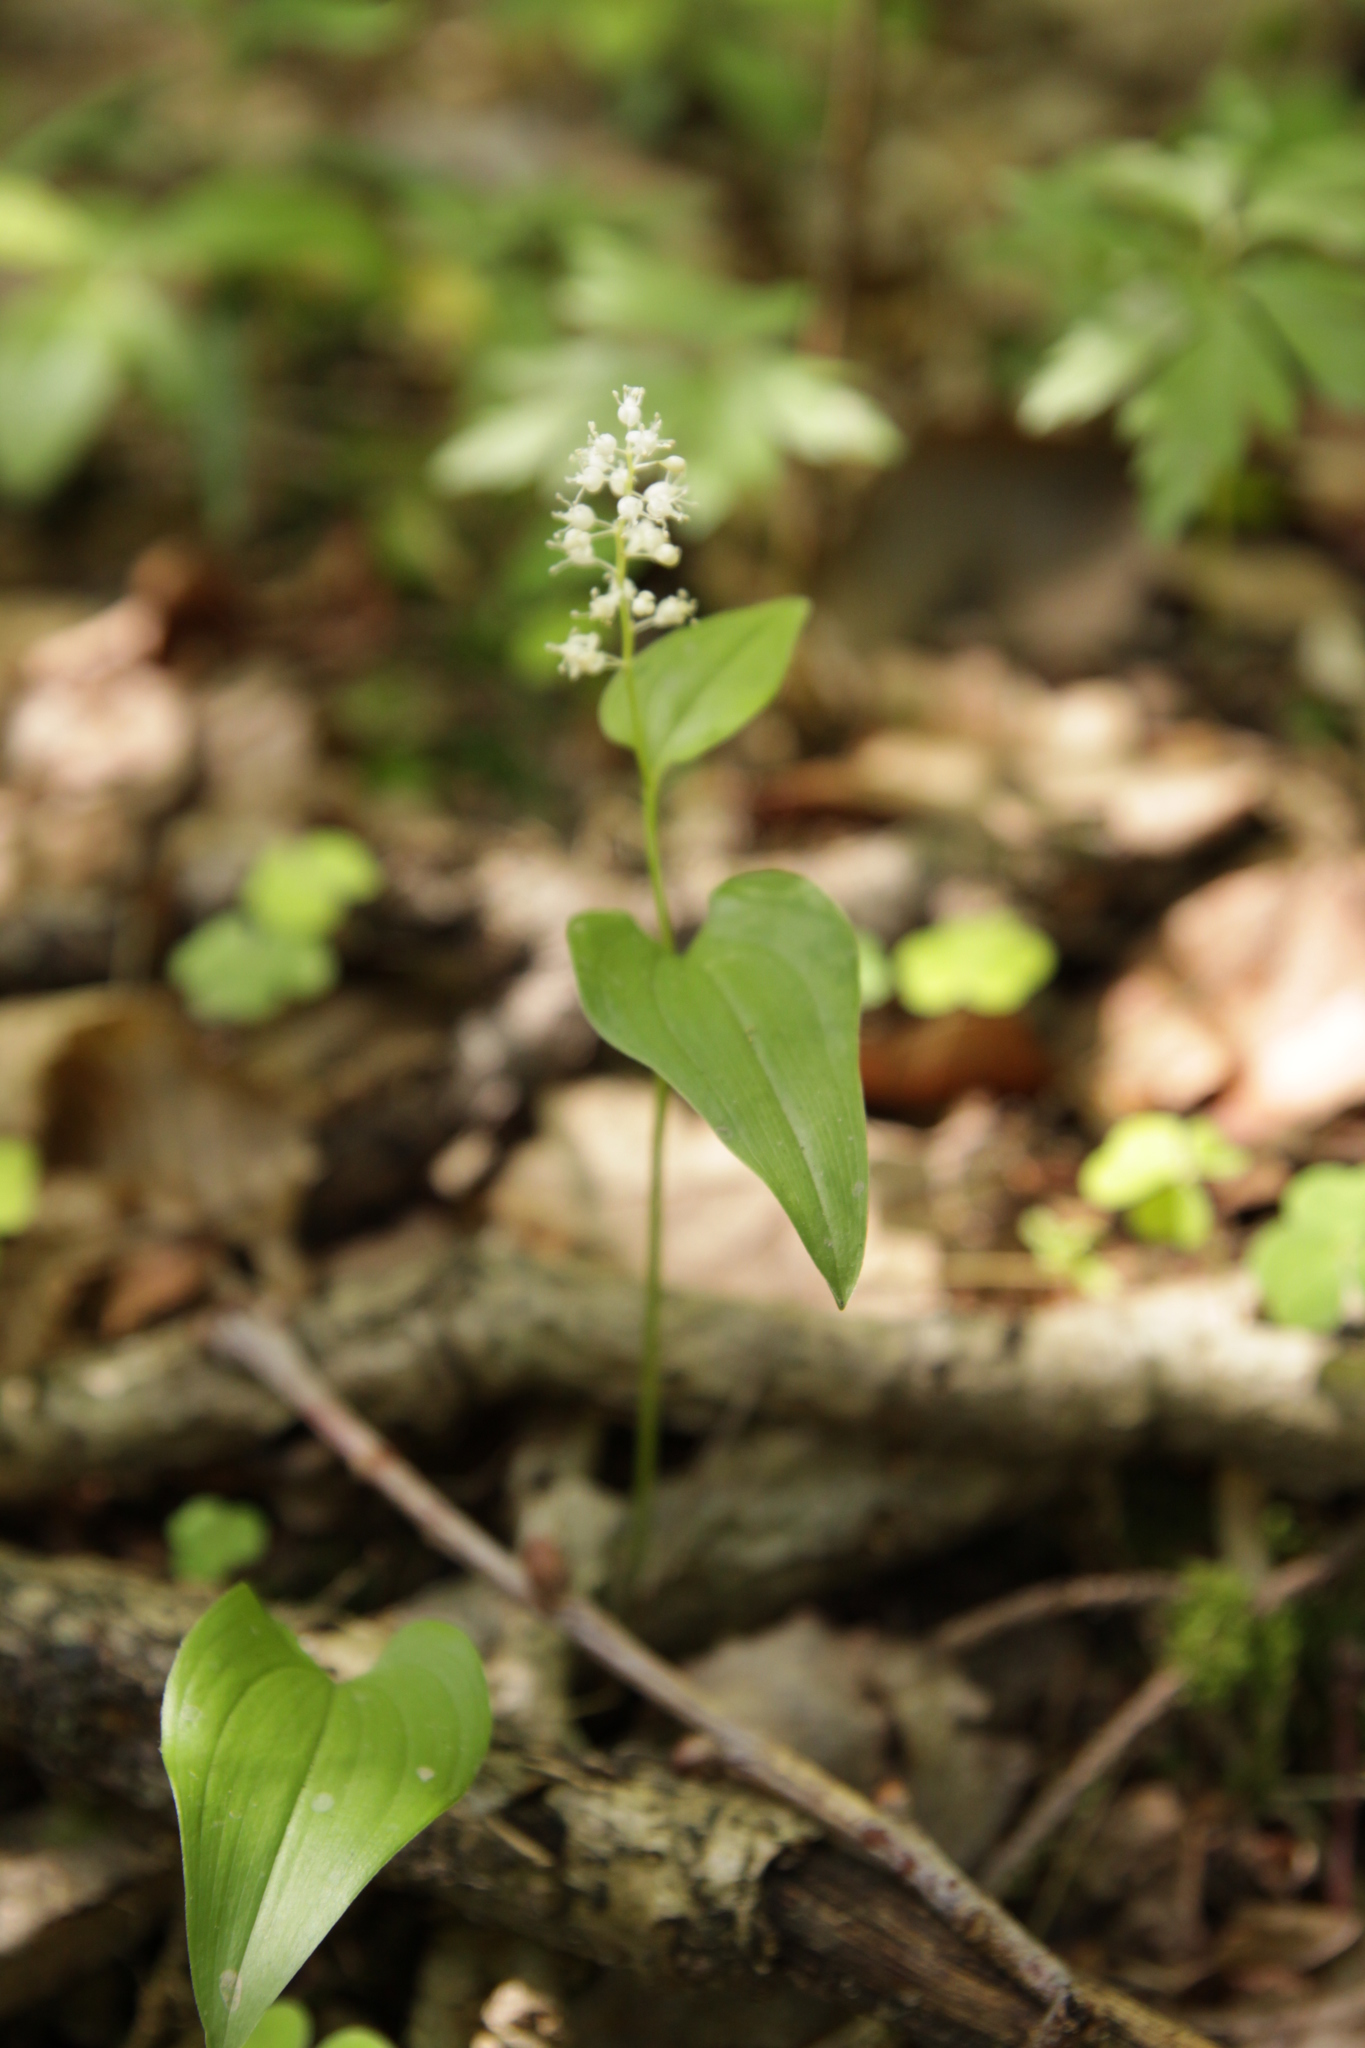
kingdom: Plantae
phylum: Tracheophyta
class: Liliopsida
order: Asparagales
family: Asparagaceae
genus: Maianthemum
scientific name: Maianthemum bifolium
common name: May lily
